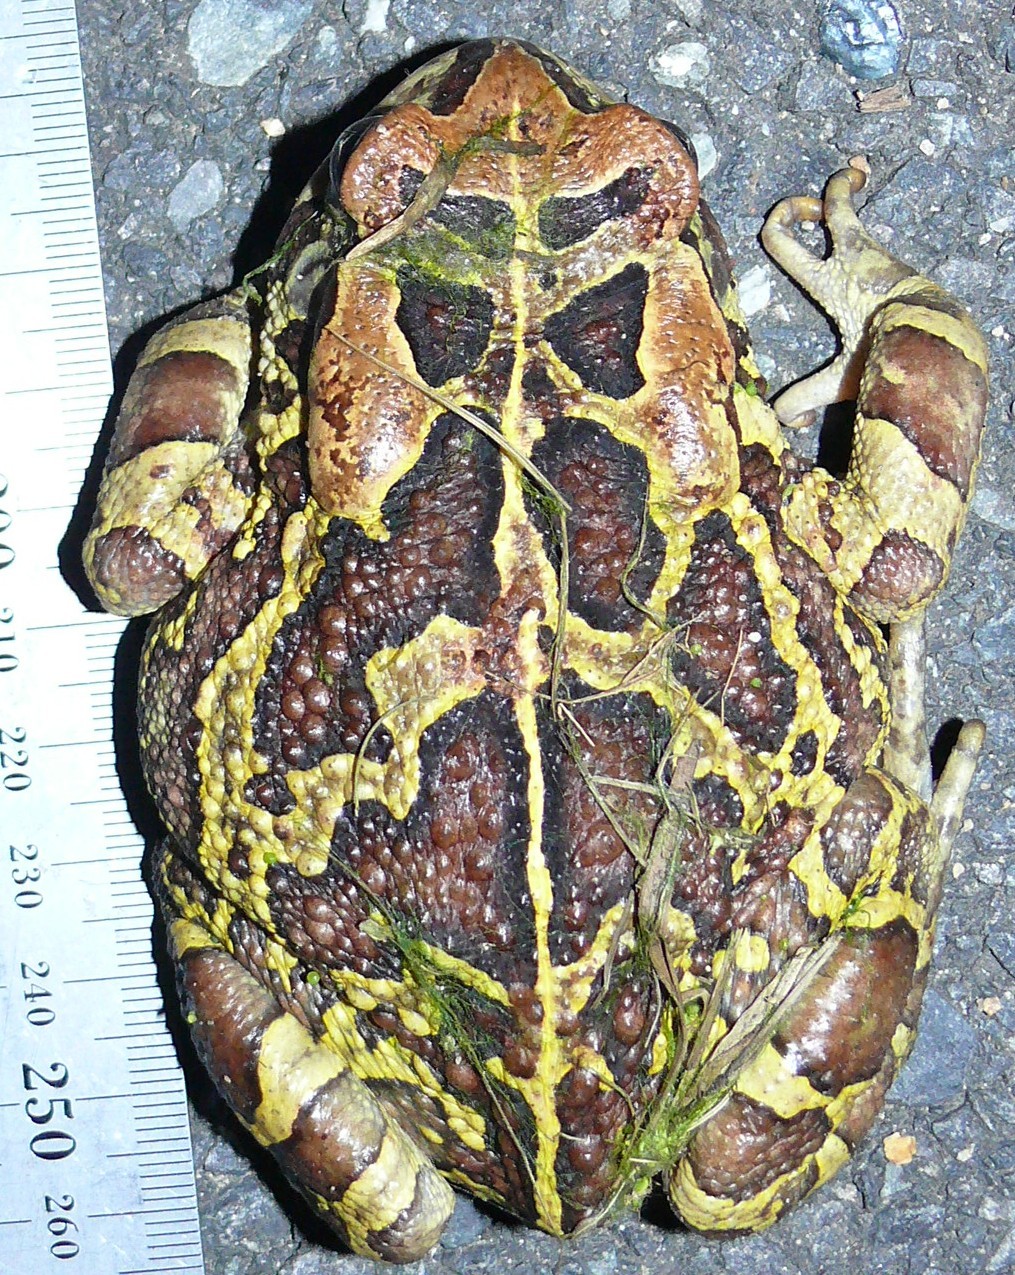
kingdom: Animalia
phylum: Chordata
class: Amphibia
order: Anura
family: Bufonidae
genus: Sclerophrys
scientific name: Sclerophrys pantherina
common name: Panther toad
